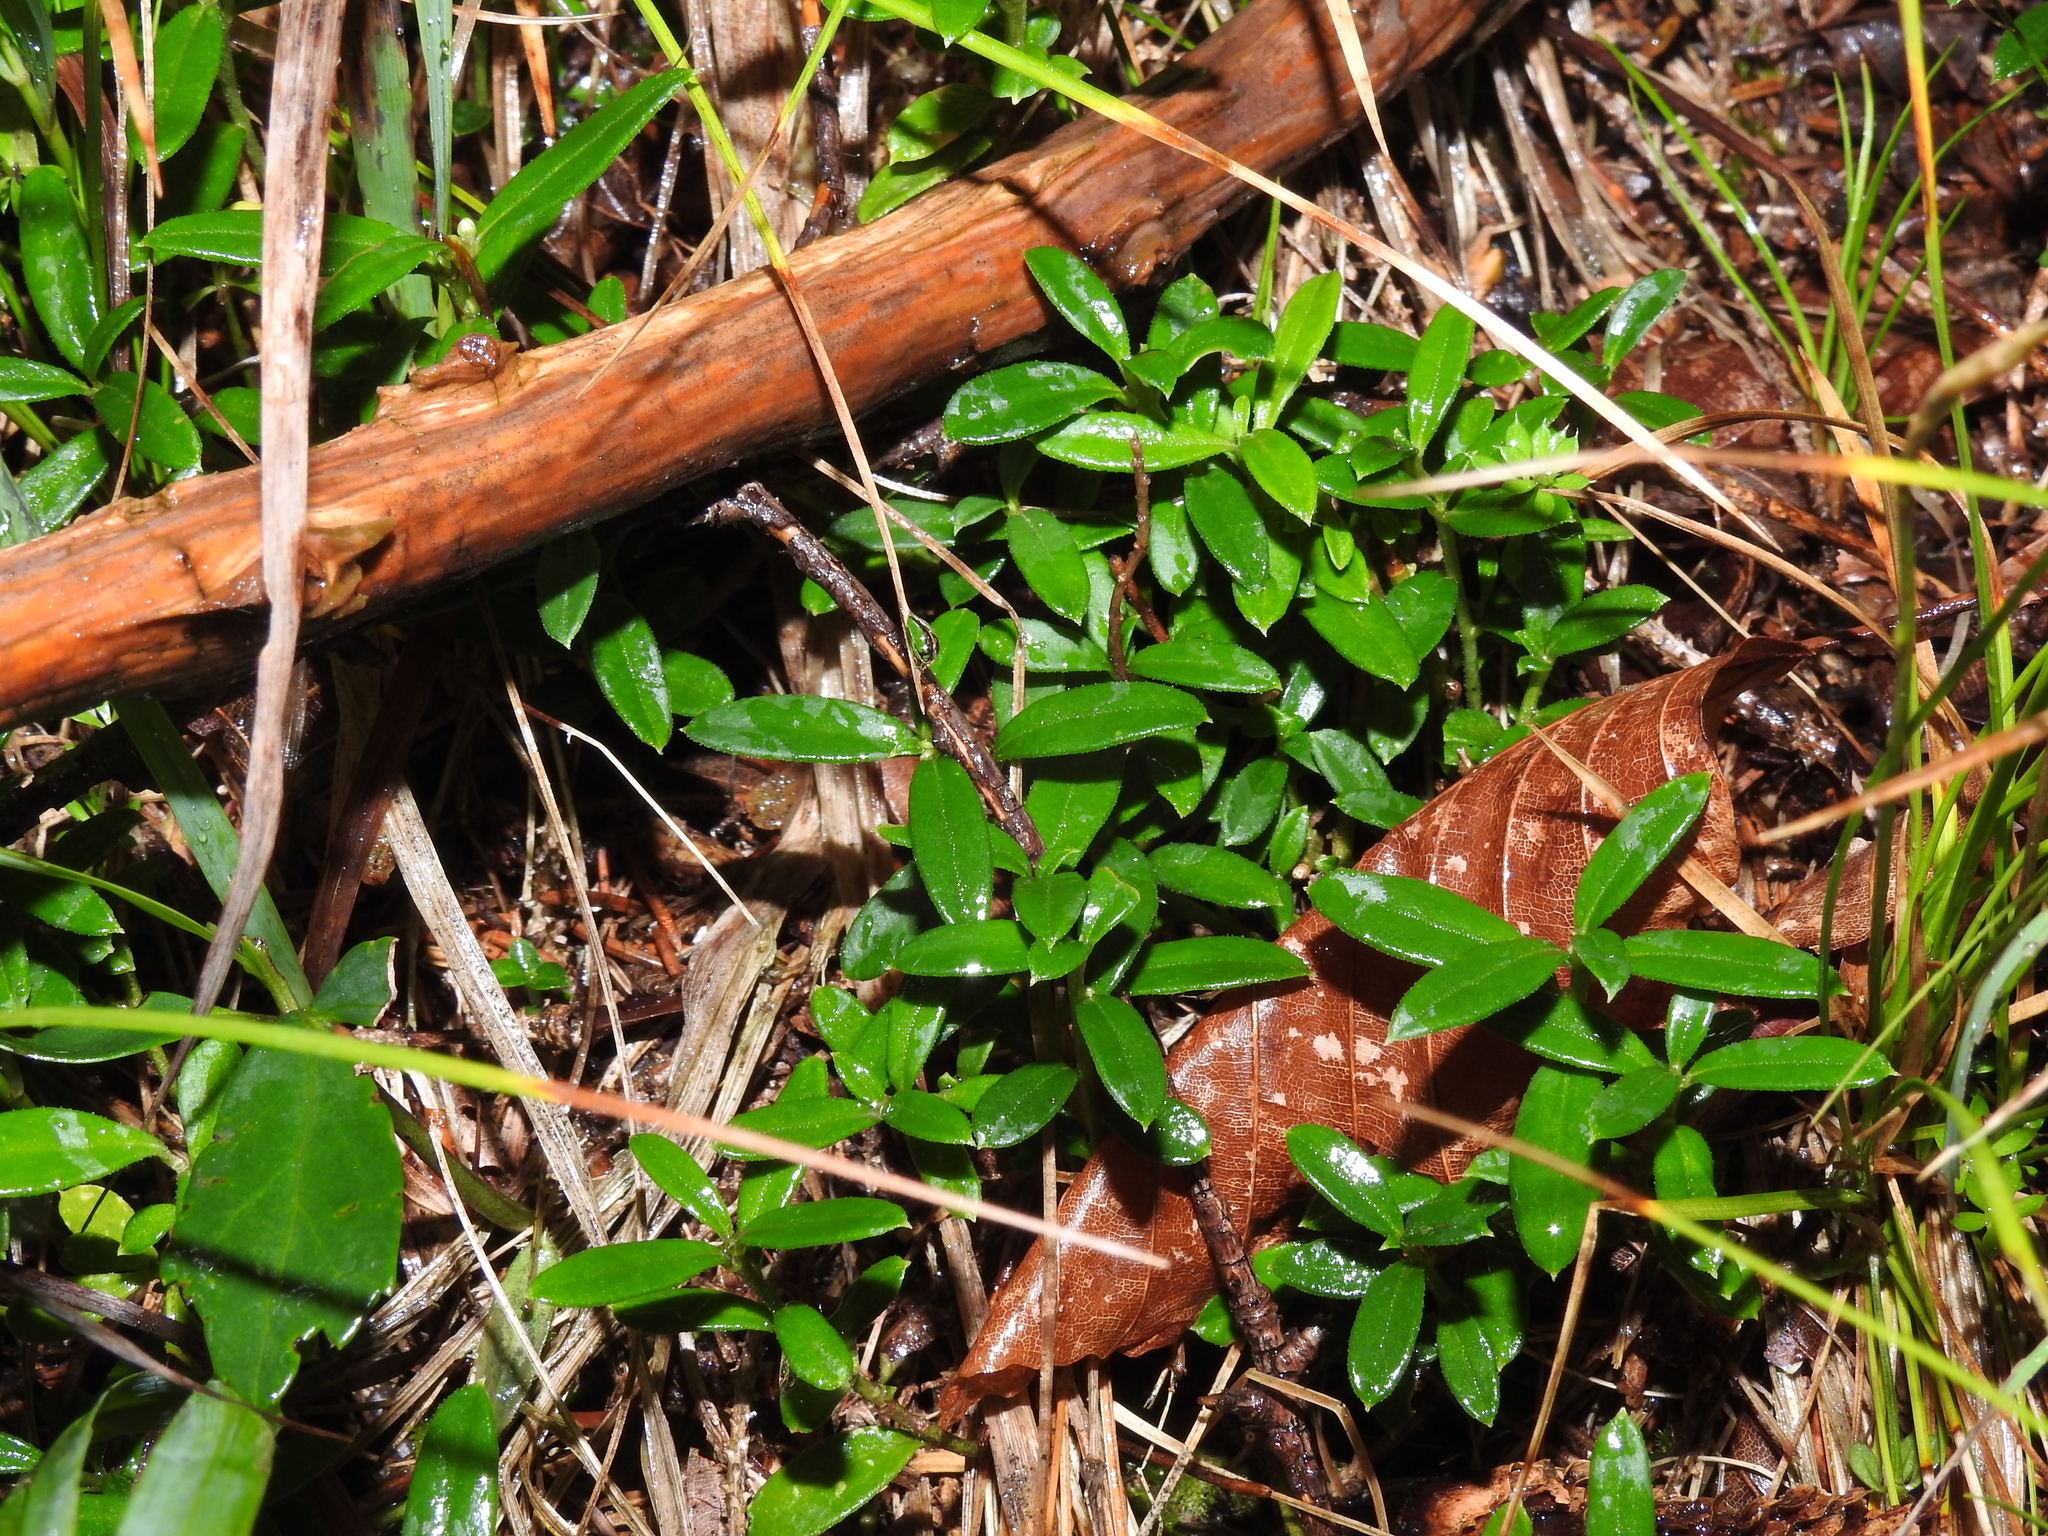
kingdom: Plantae
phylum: Tracheophyta
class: Magnoliopsida
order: Fabales
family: Polygalaceae
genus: Polygaloides
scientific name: Polygaloides chamaebuxus
